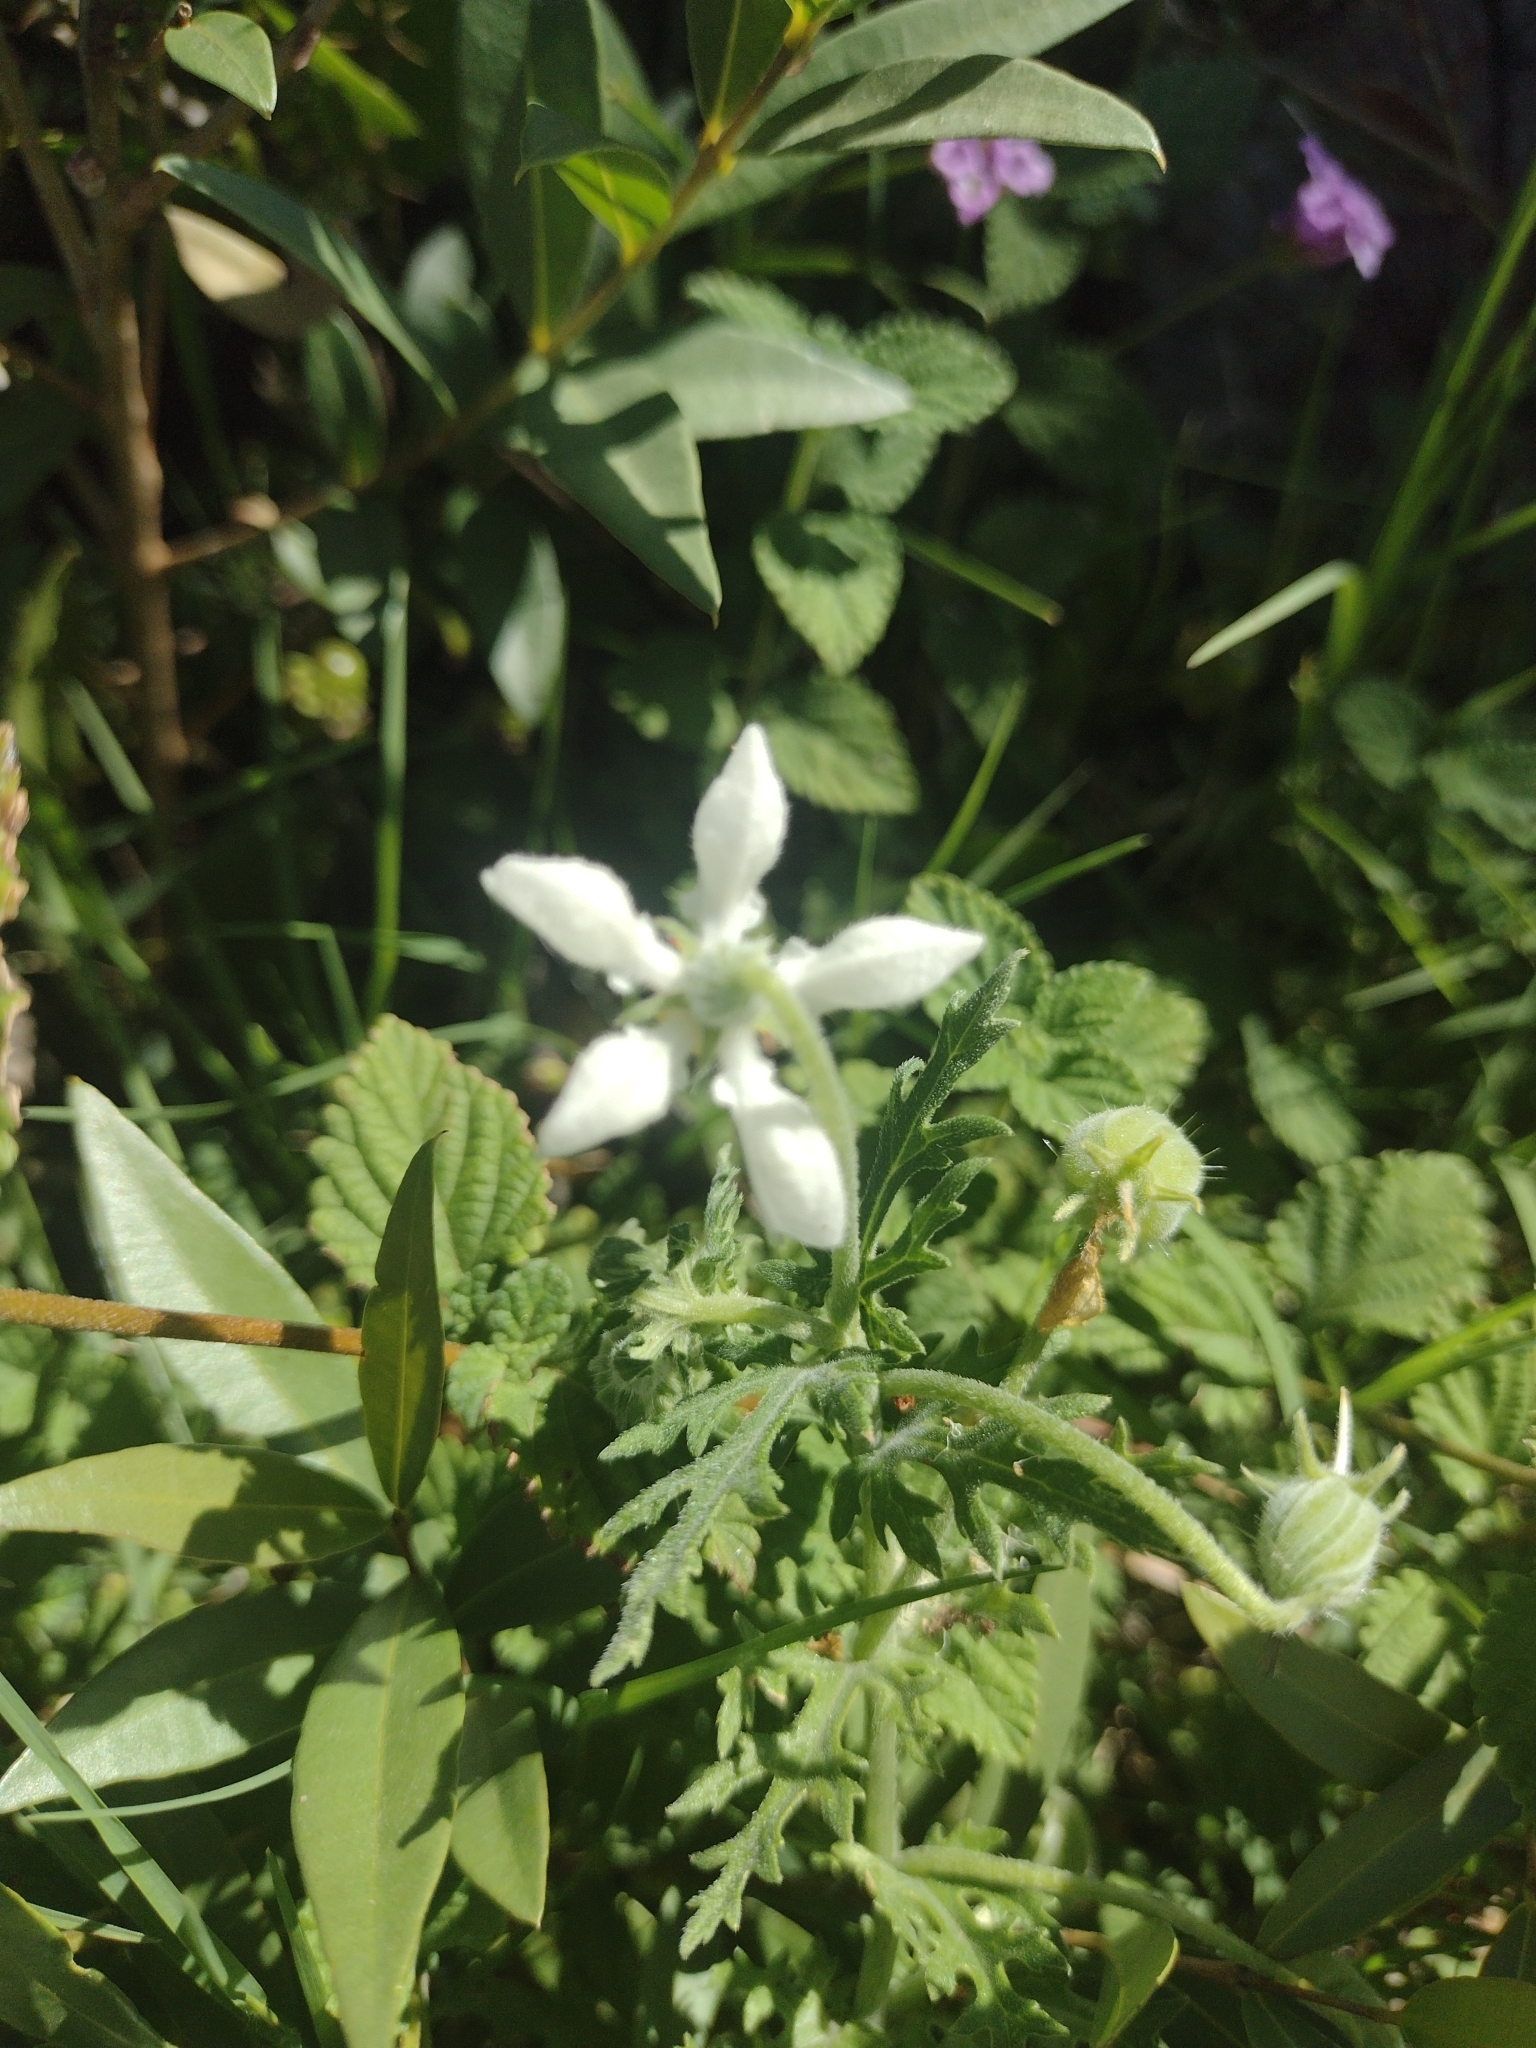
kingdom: Plantae
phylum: Tracheophyta
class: Magnoliopsida
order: Cornales
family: Loasaceae
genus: Blumenbachia
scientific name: Blumenbachia insignis
